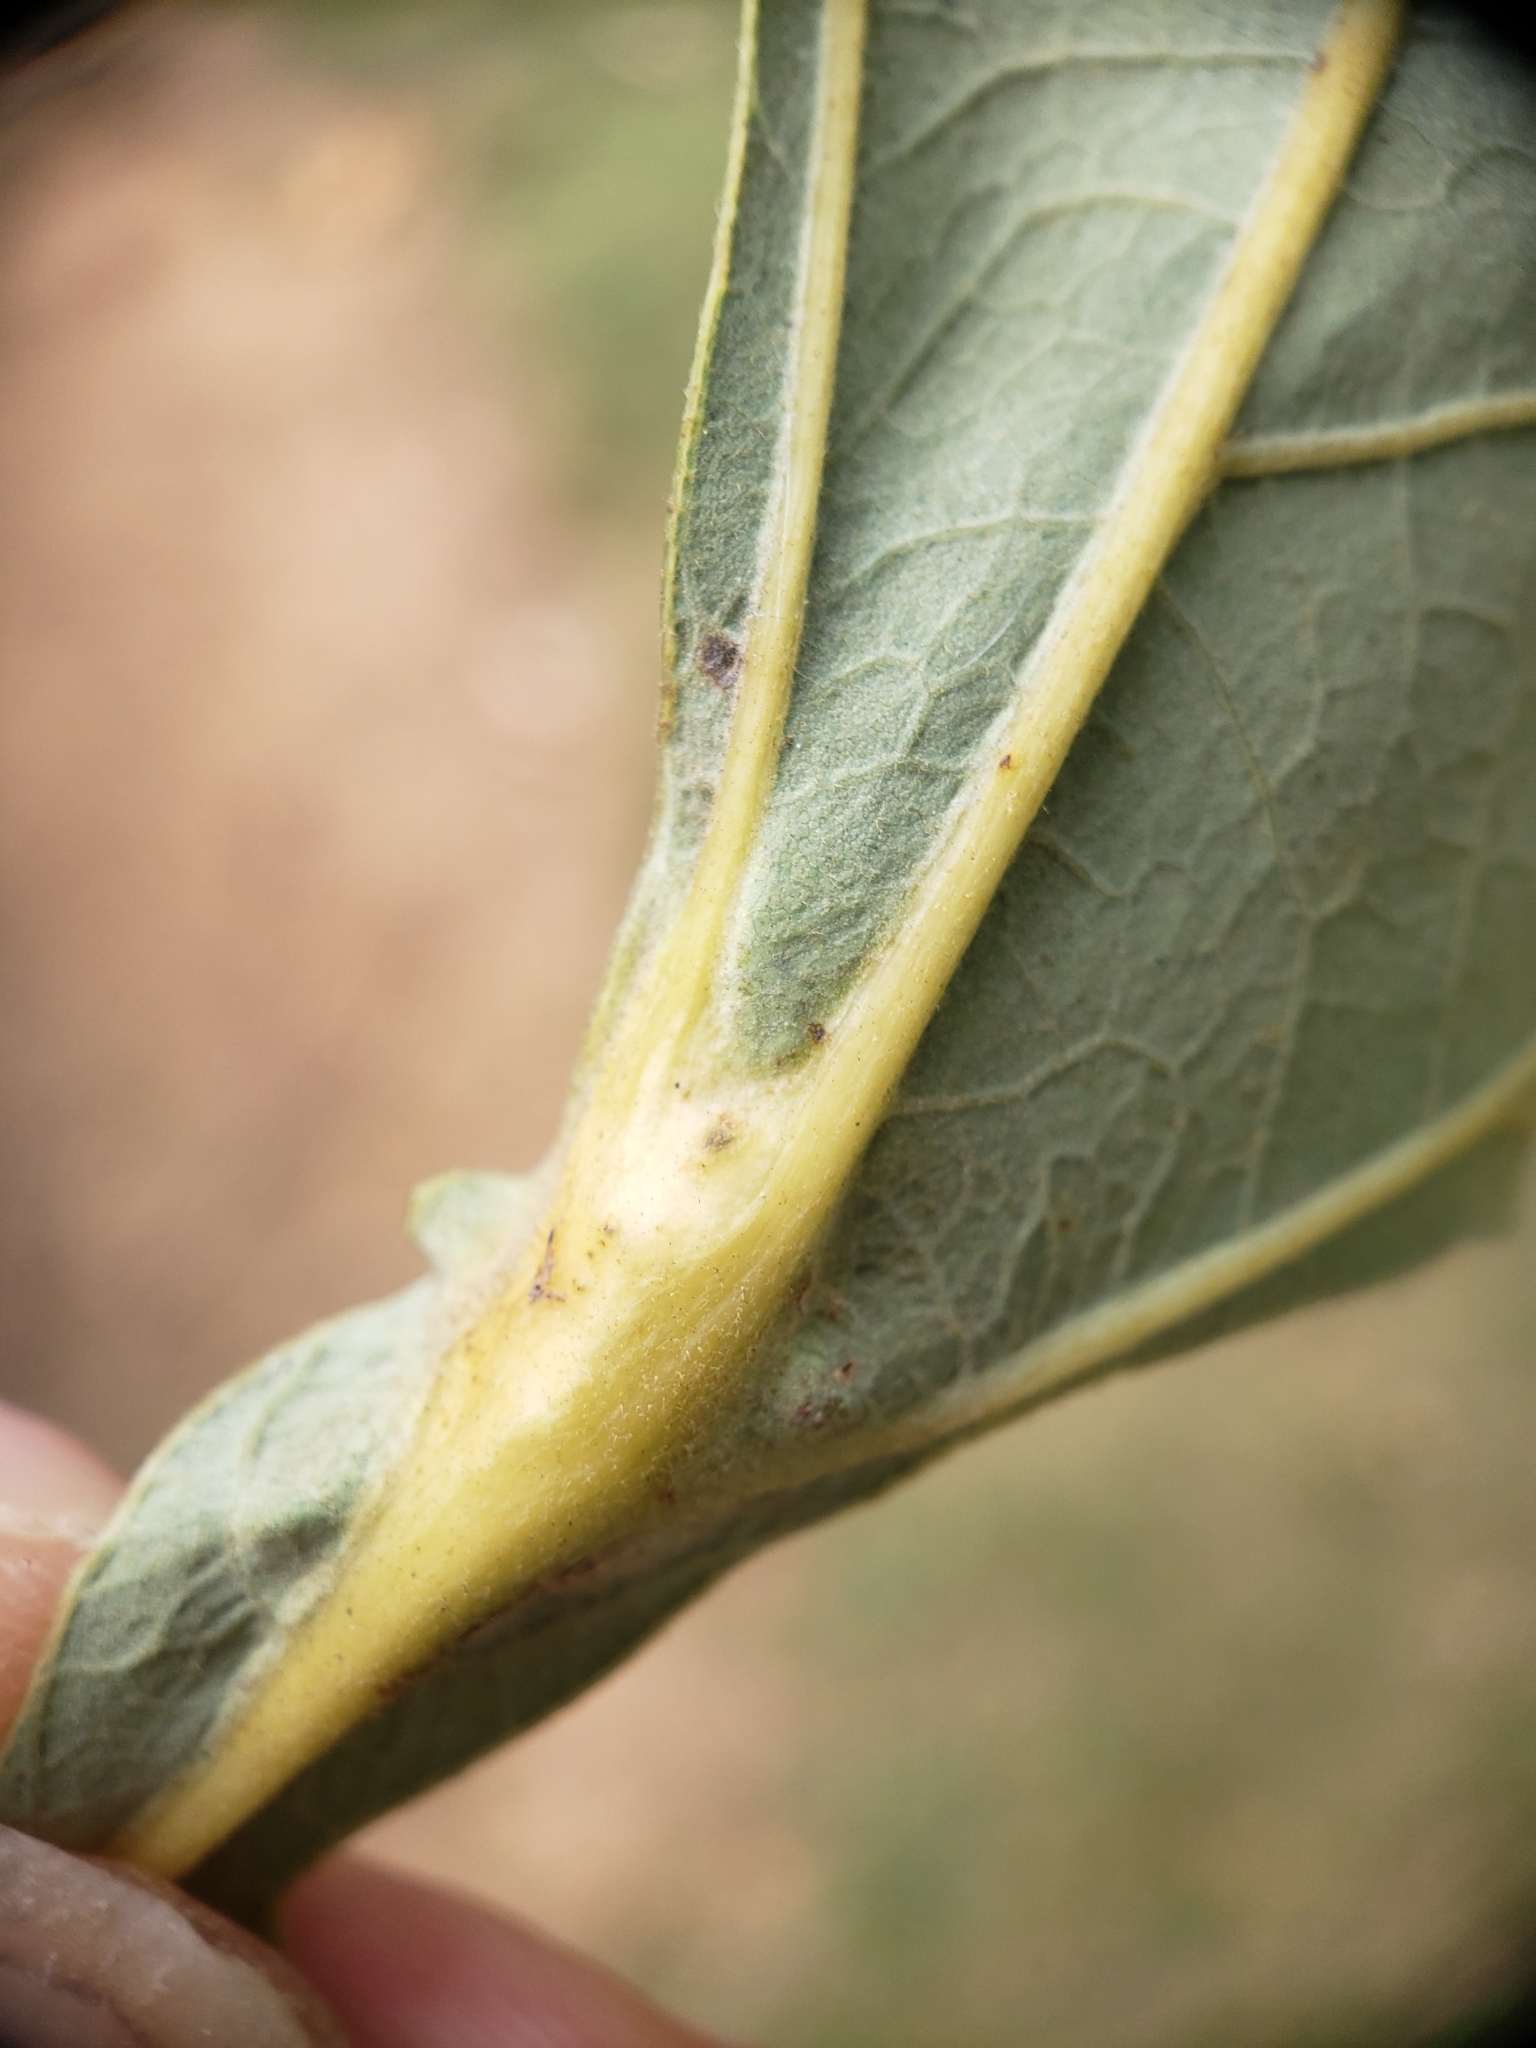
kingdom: Animalia
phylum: Arthropoda
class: Insecta
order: Hymenoptera
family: Cynipidae
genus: Bassettia
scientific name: Bassettia flavipes
